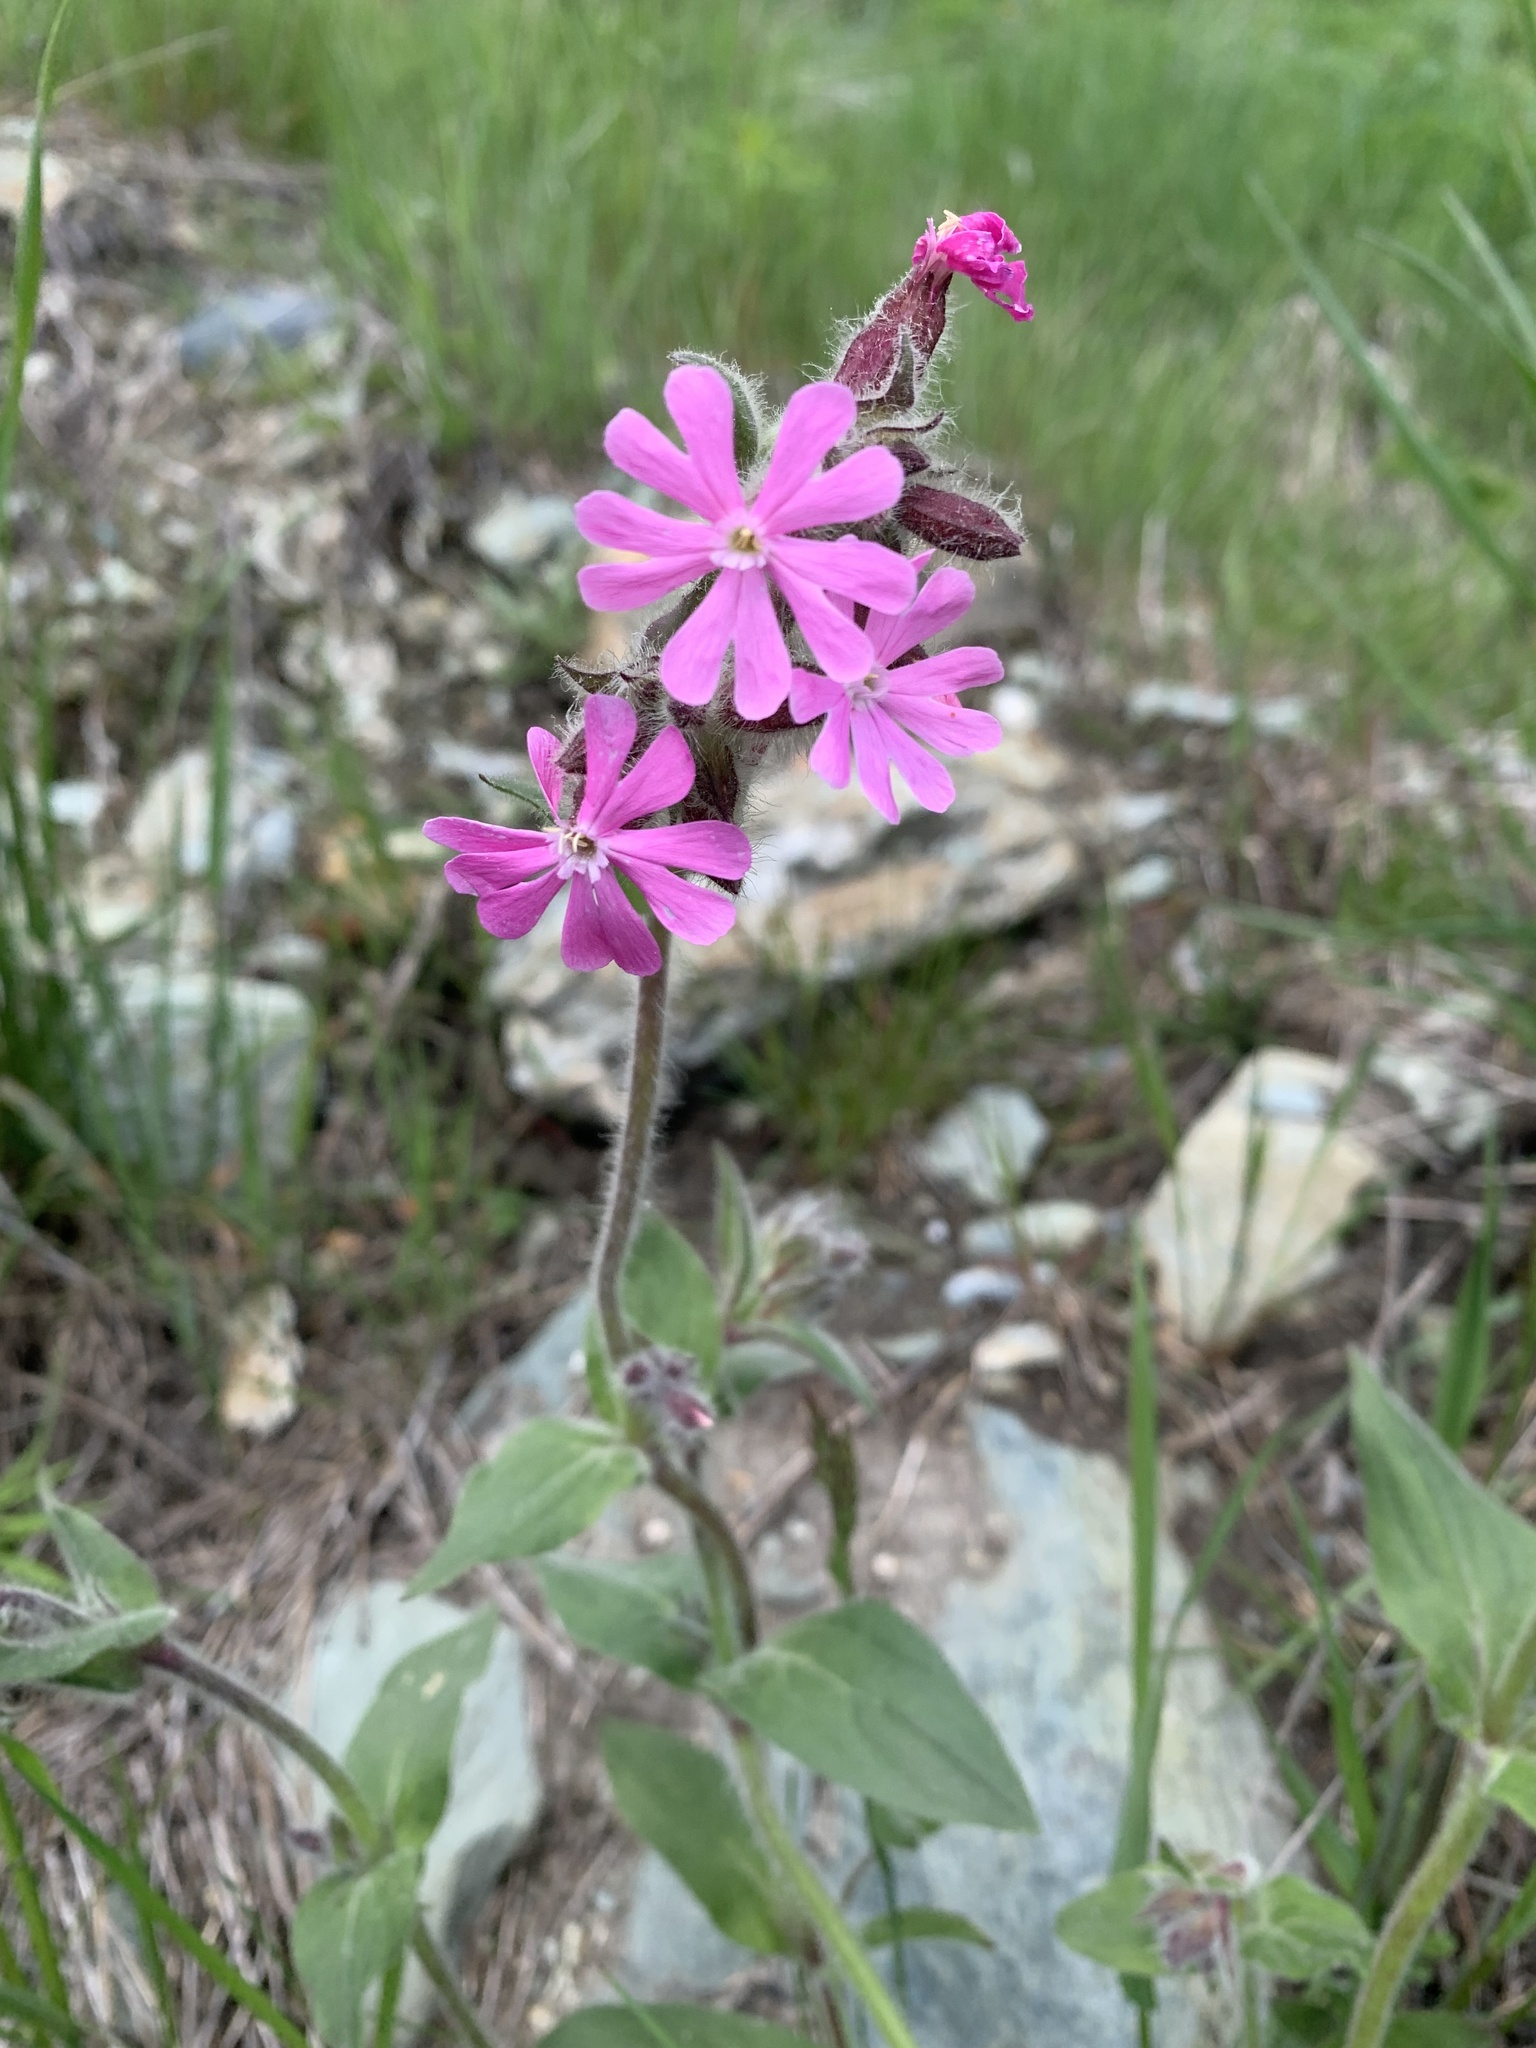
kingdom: Plantae
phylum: Tracheophyta
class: Magnoliopsida
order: Caryophyllales
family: Caryophyllaceae
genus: Silene
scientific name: Silene dioica
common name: Red campion
